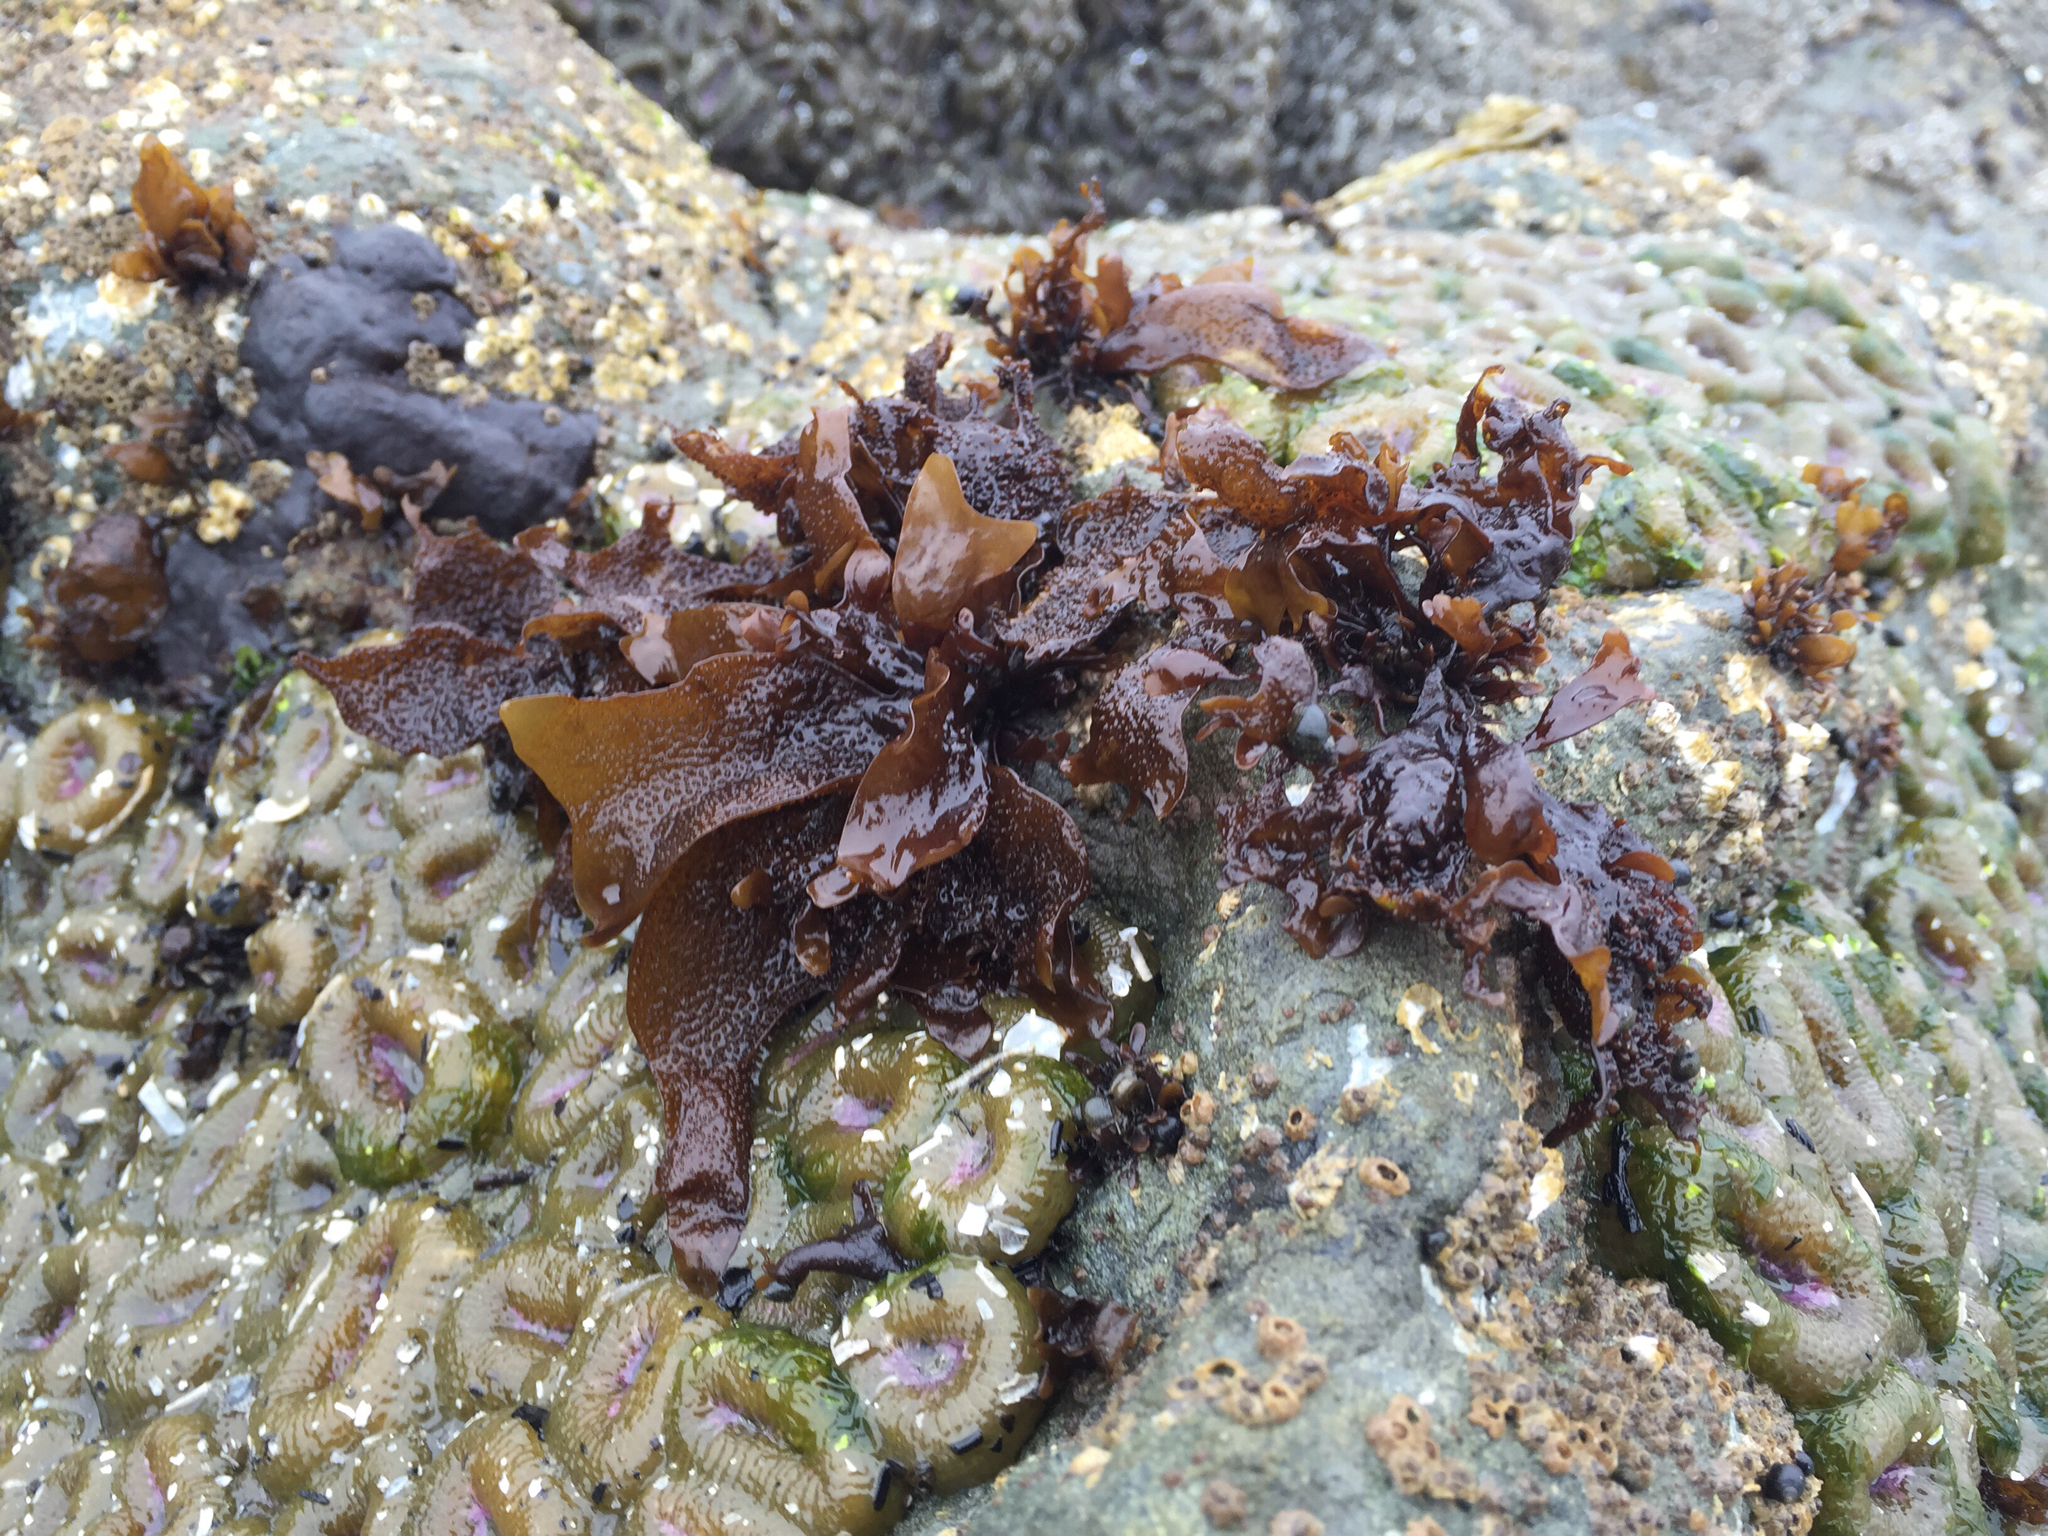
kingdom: Plantae
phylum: Rhodophyta
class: Florideophyceae
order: Gigartinales
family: Phyllophoraceae
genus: Mastocarpus
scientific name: Mastocarpus papillatus
